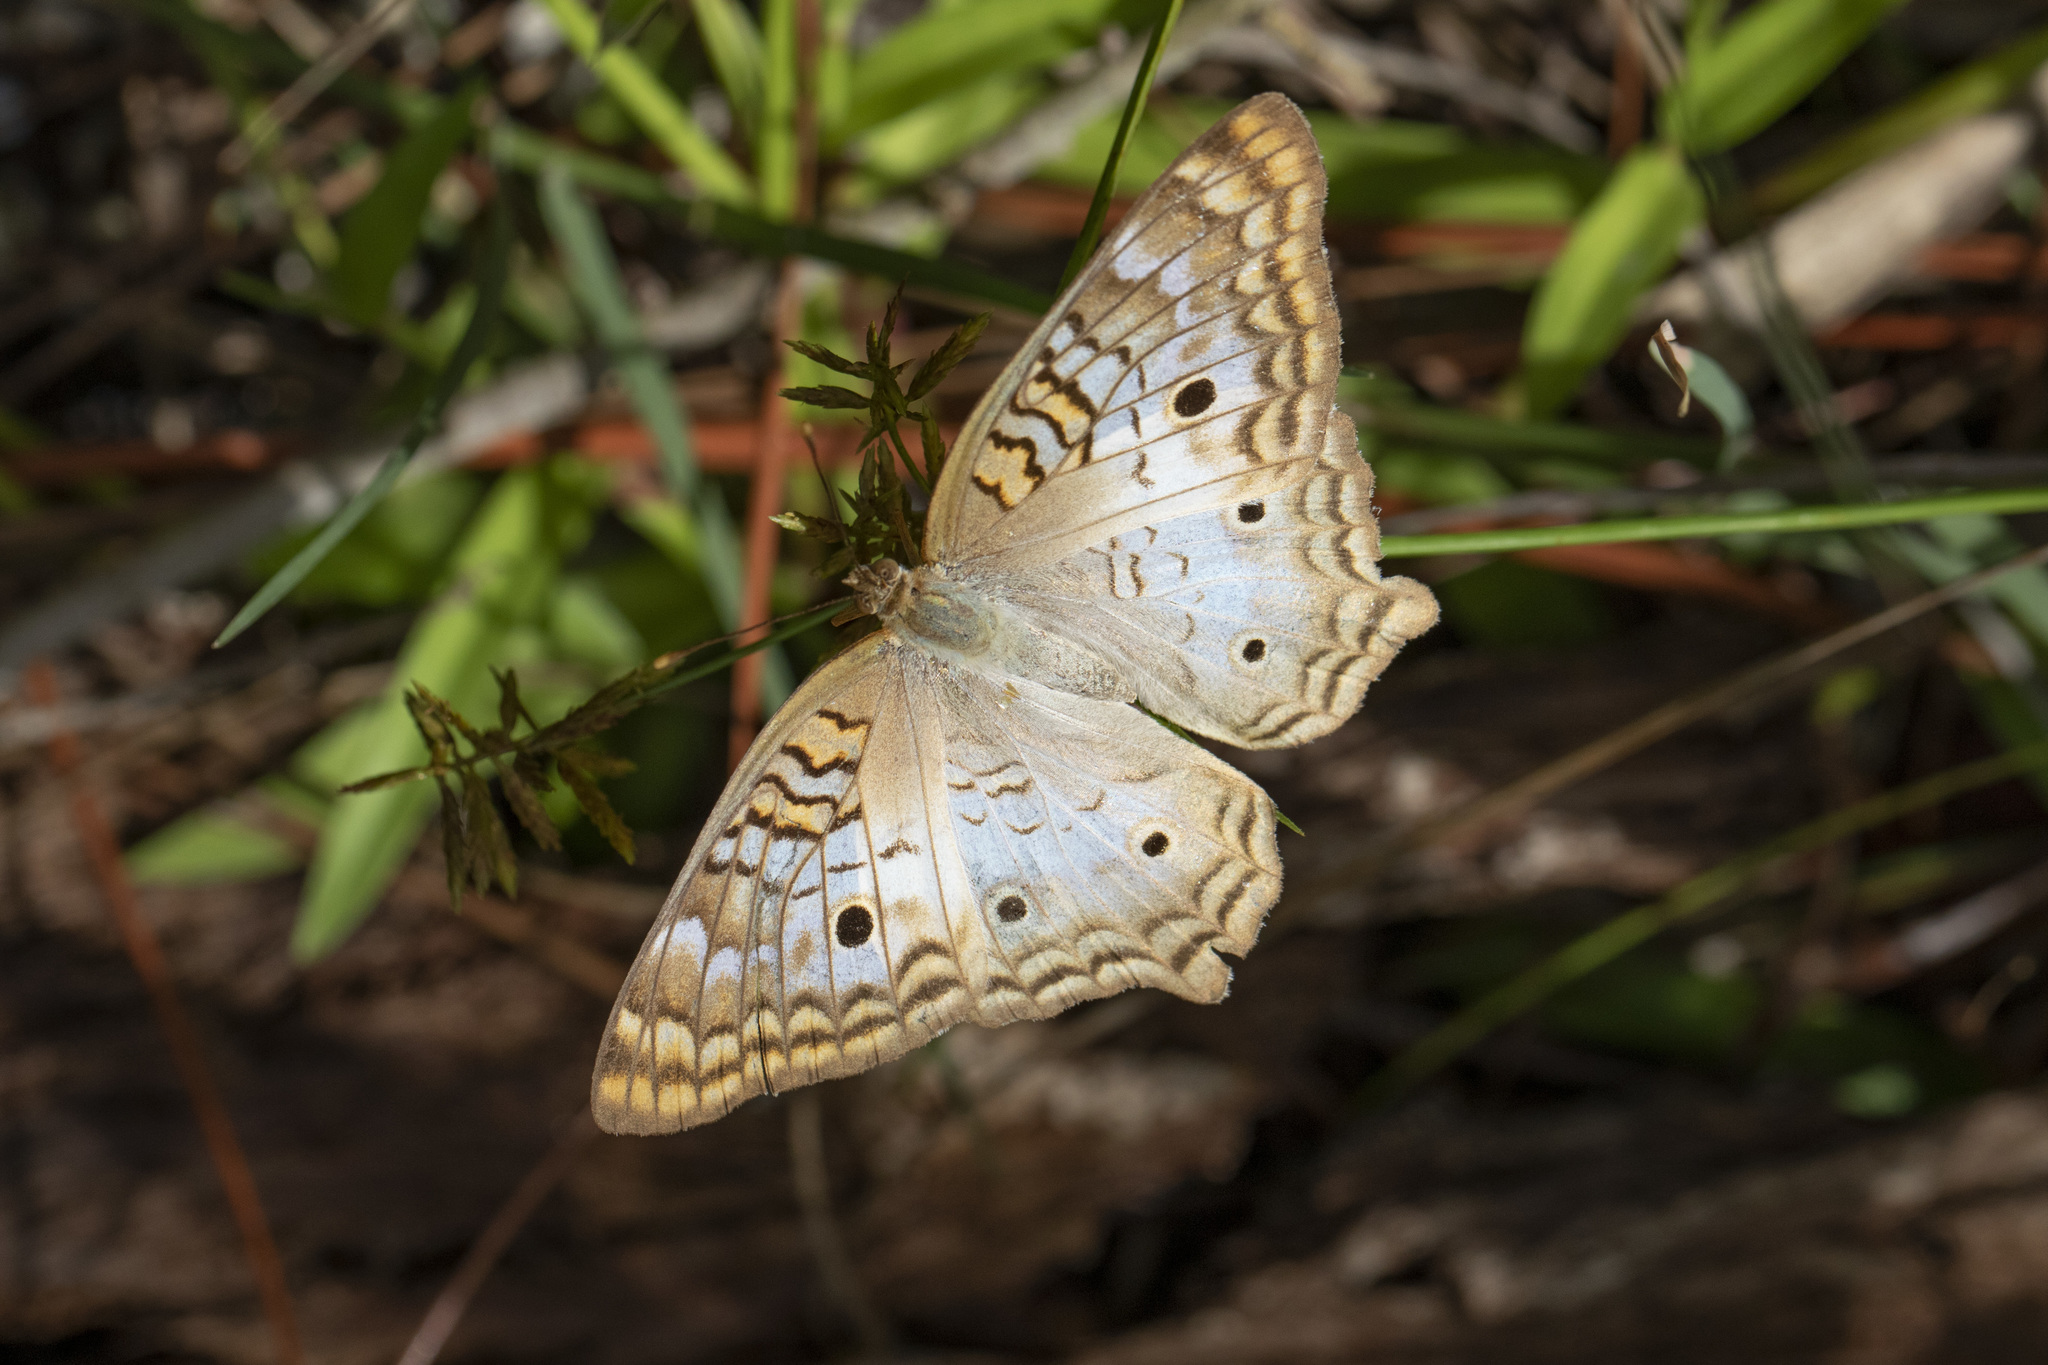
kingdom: Animalia
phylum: Arthropoda
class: Insecta
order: Lepidoptera
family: Nymphalidae
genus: Anartia
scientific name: Anartia jatrophae
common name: White peacock
